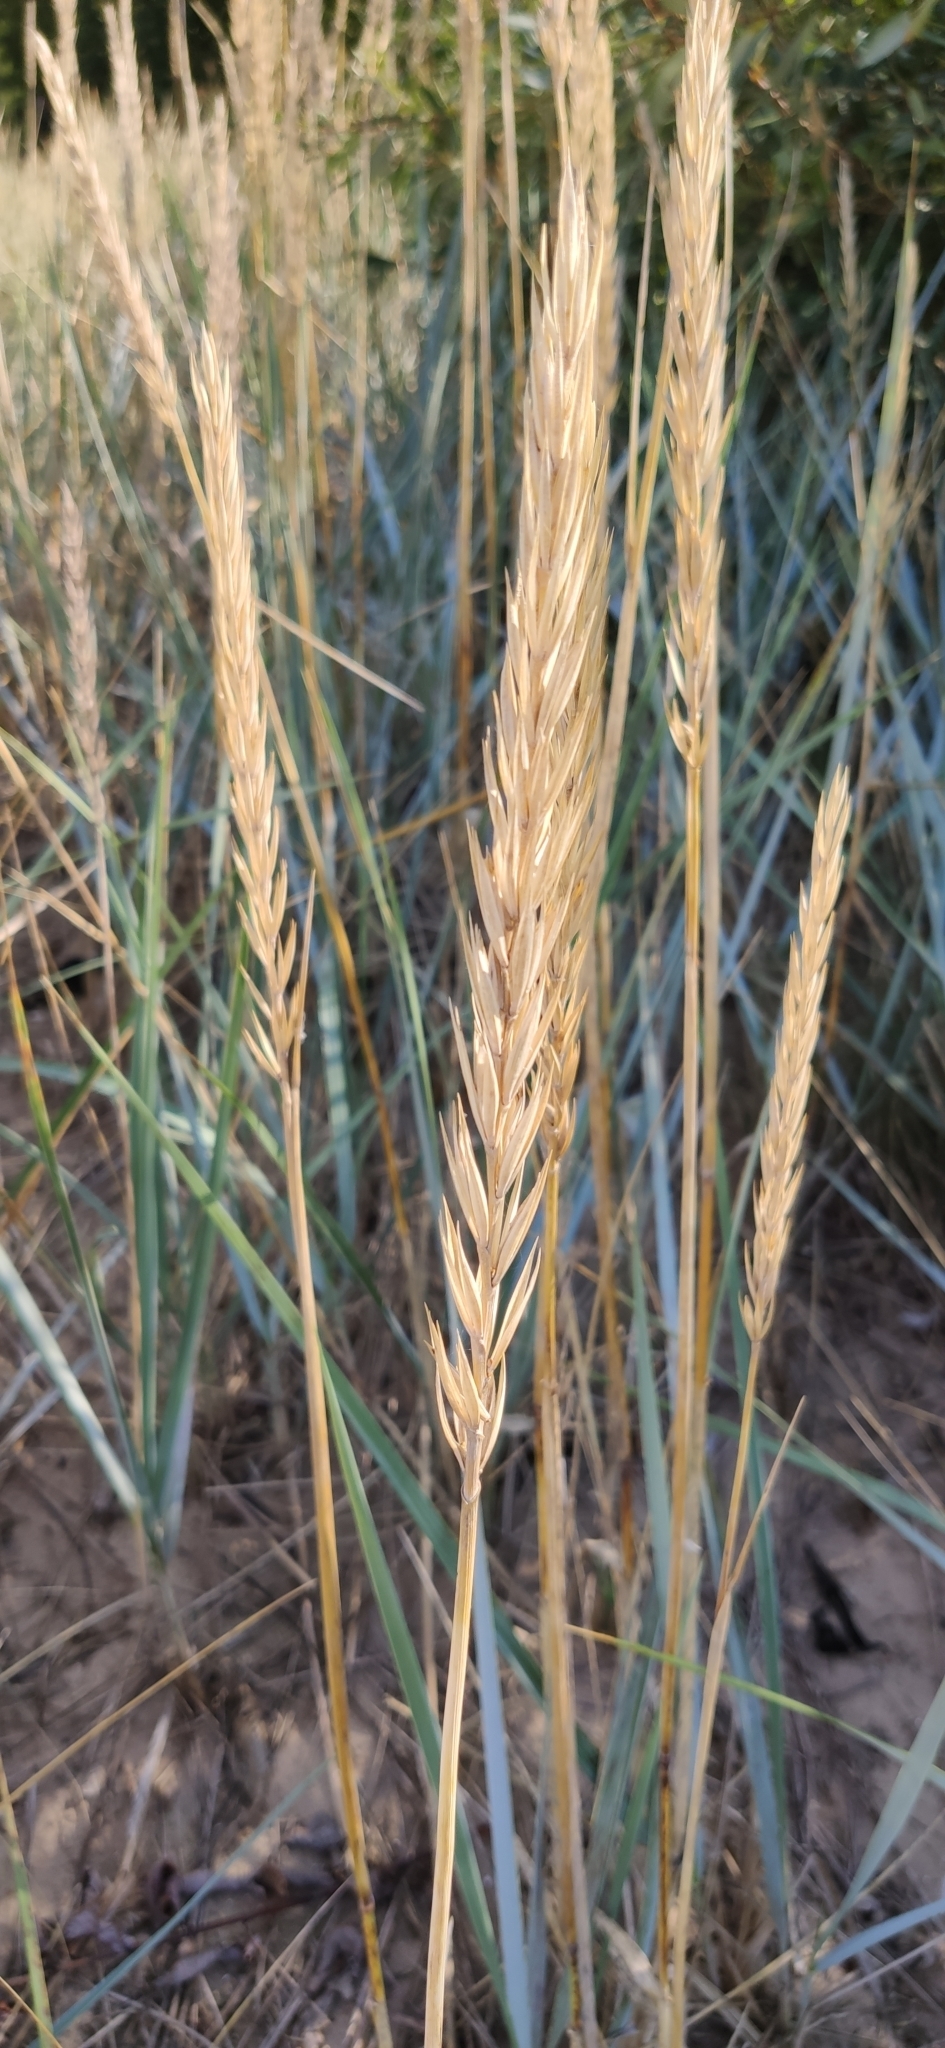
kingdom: Plantae
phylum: Tracheophyta
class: Liliopsida
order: Poales
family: Poaceae
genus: Leymus
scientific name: Leymus arenarius
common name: Lyme-grass
